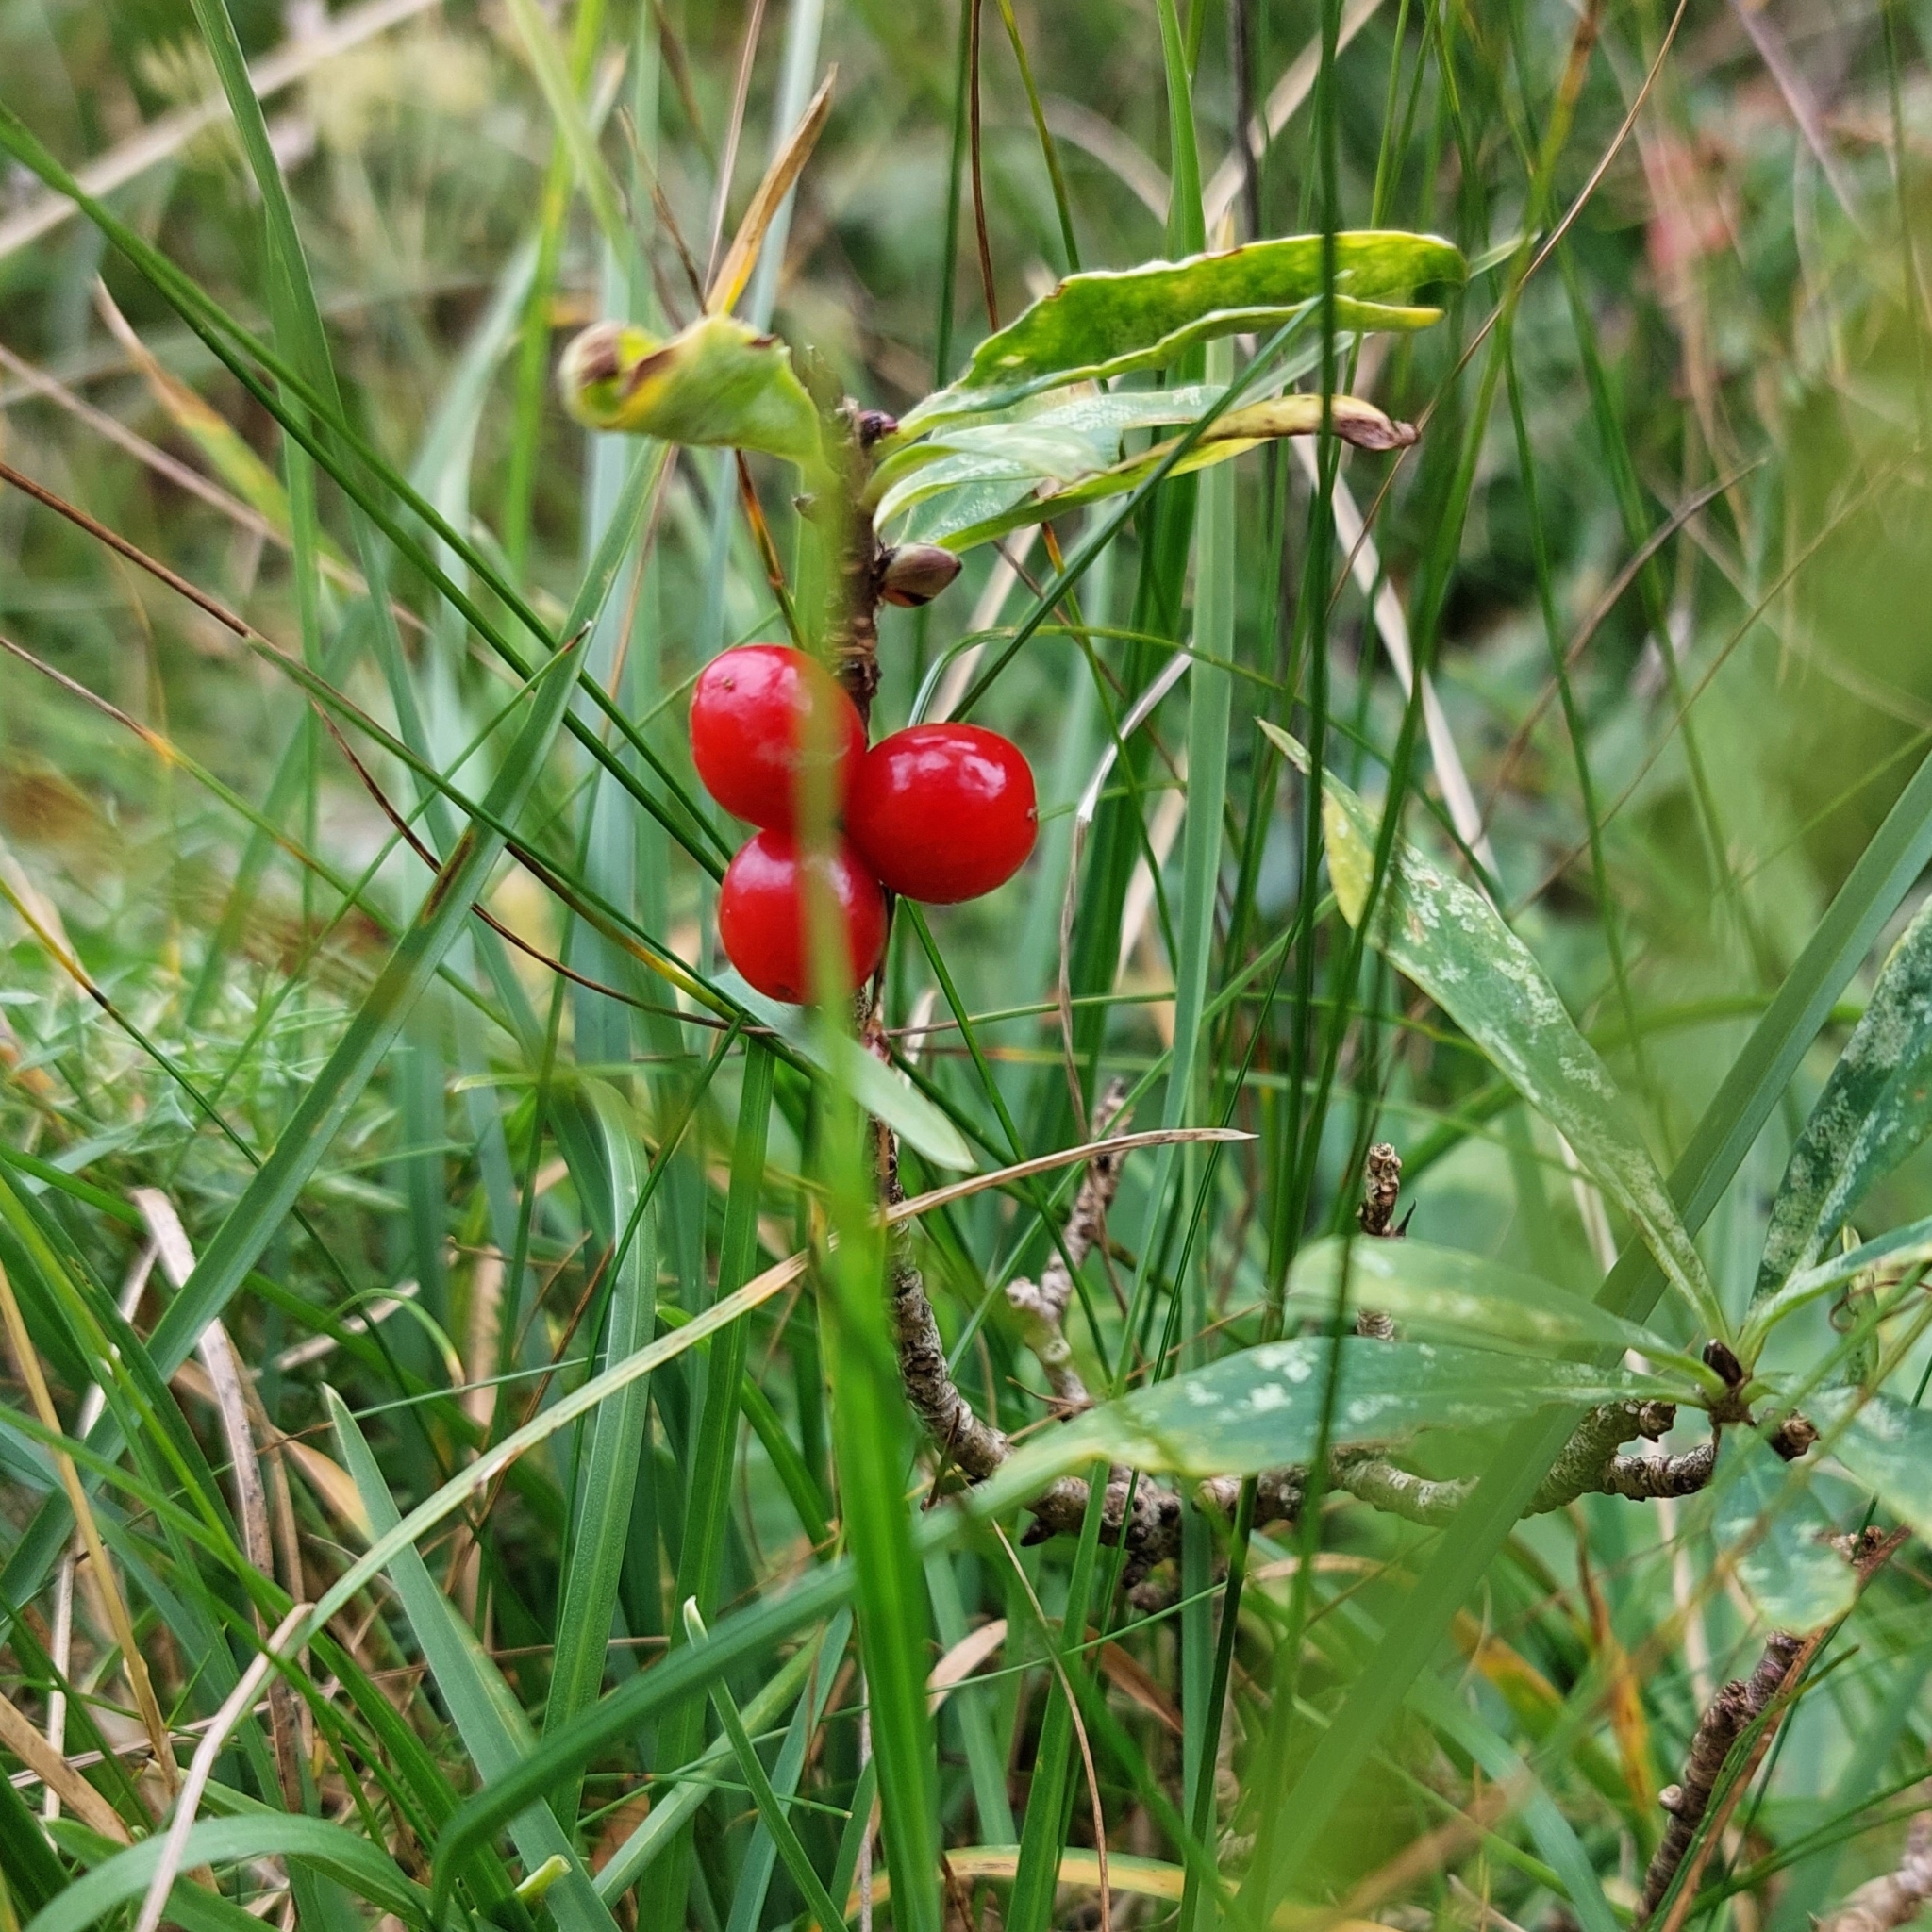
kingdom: Plantae
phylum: Tracheophyta
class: Magnoliopsida
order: Malvales
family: Thymelaeaceae
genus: Daphne
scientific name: Daphne mezereum
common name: Mezereon
